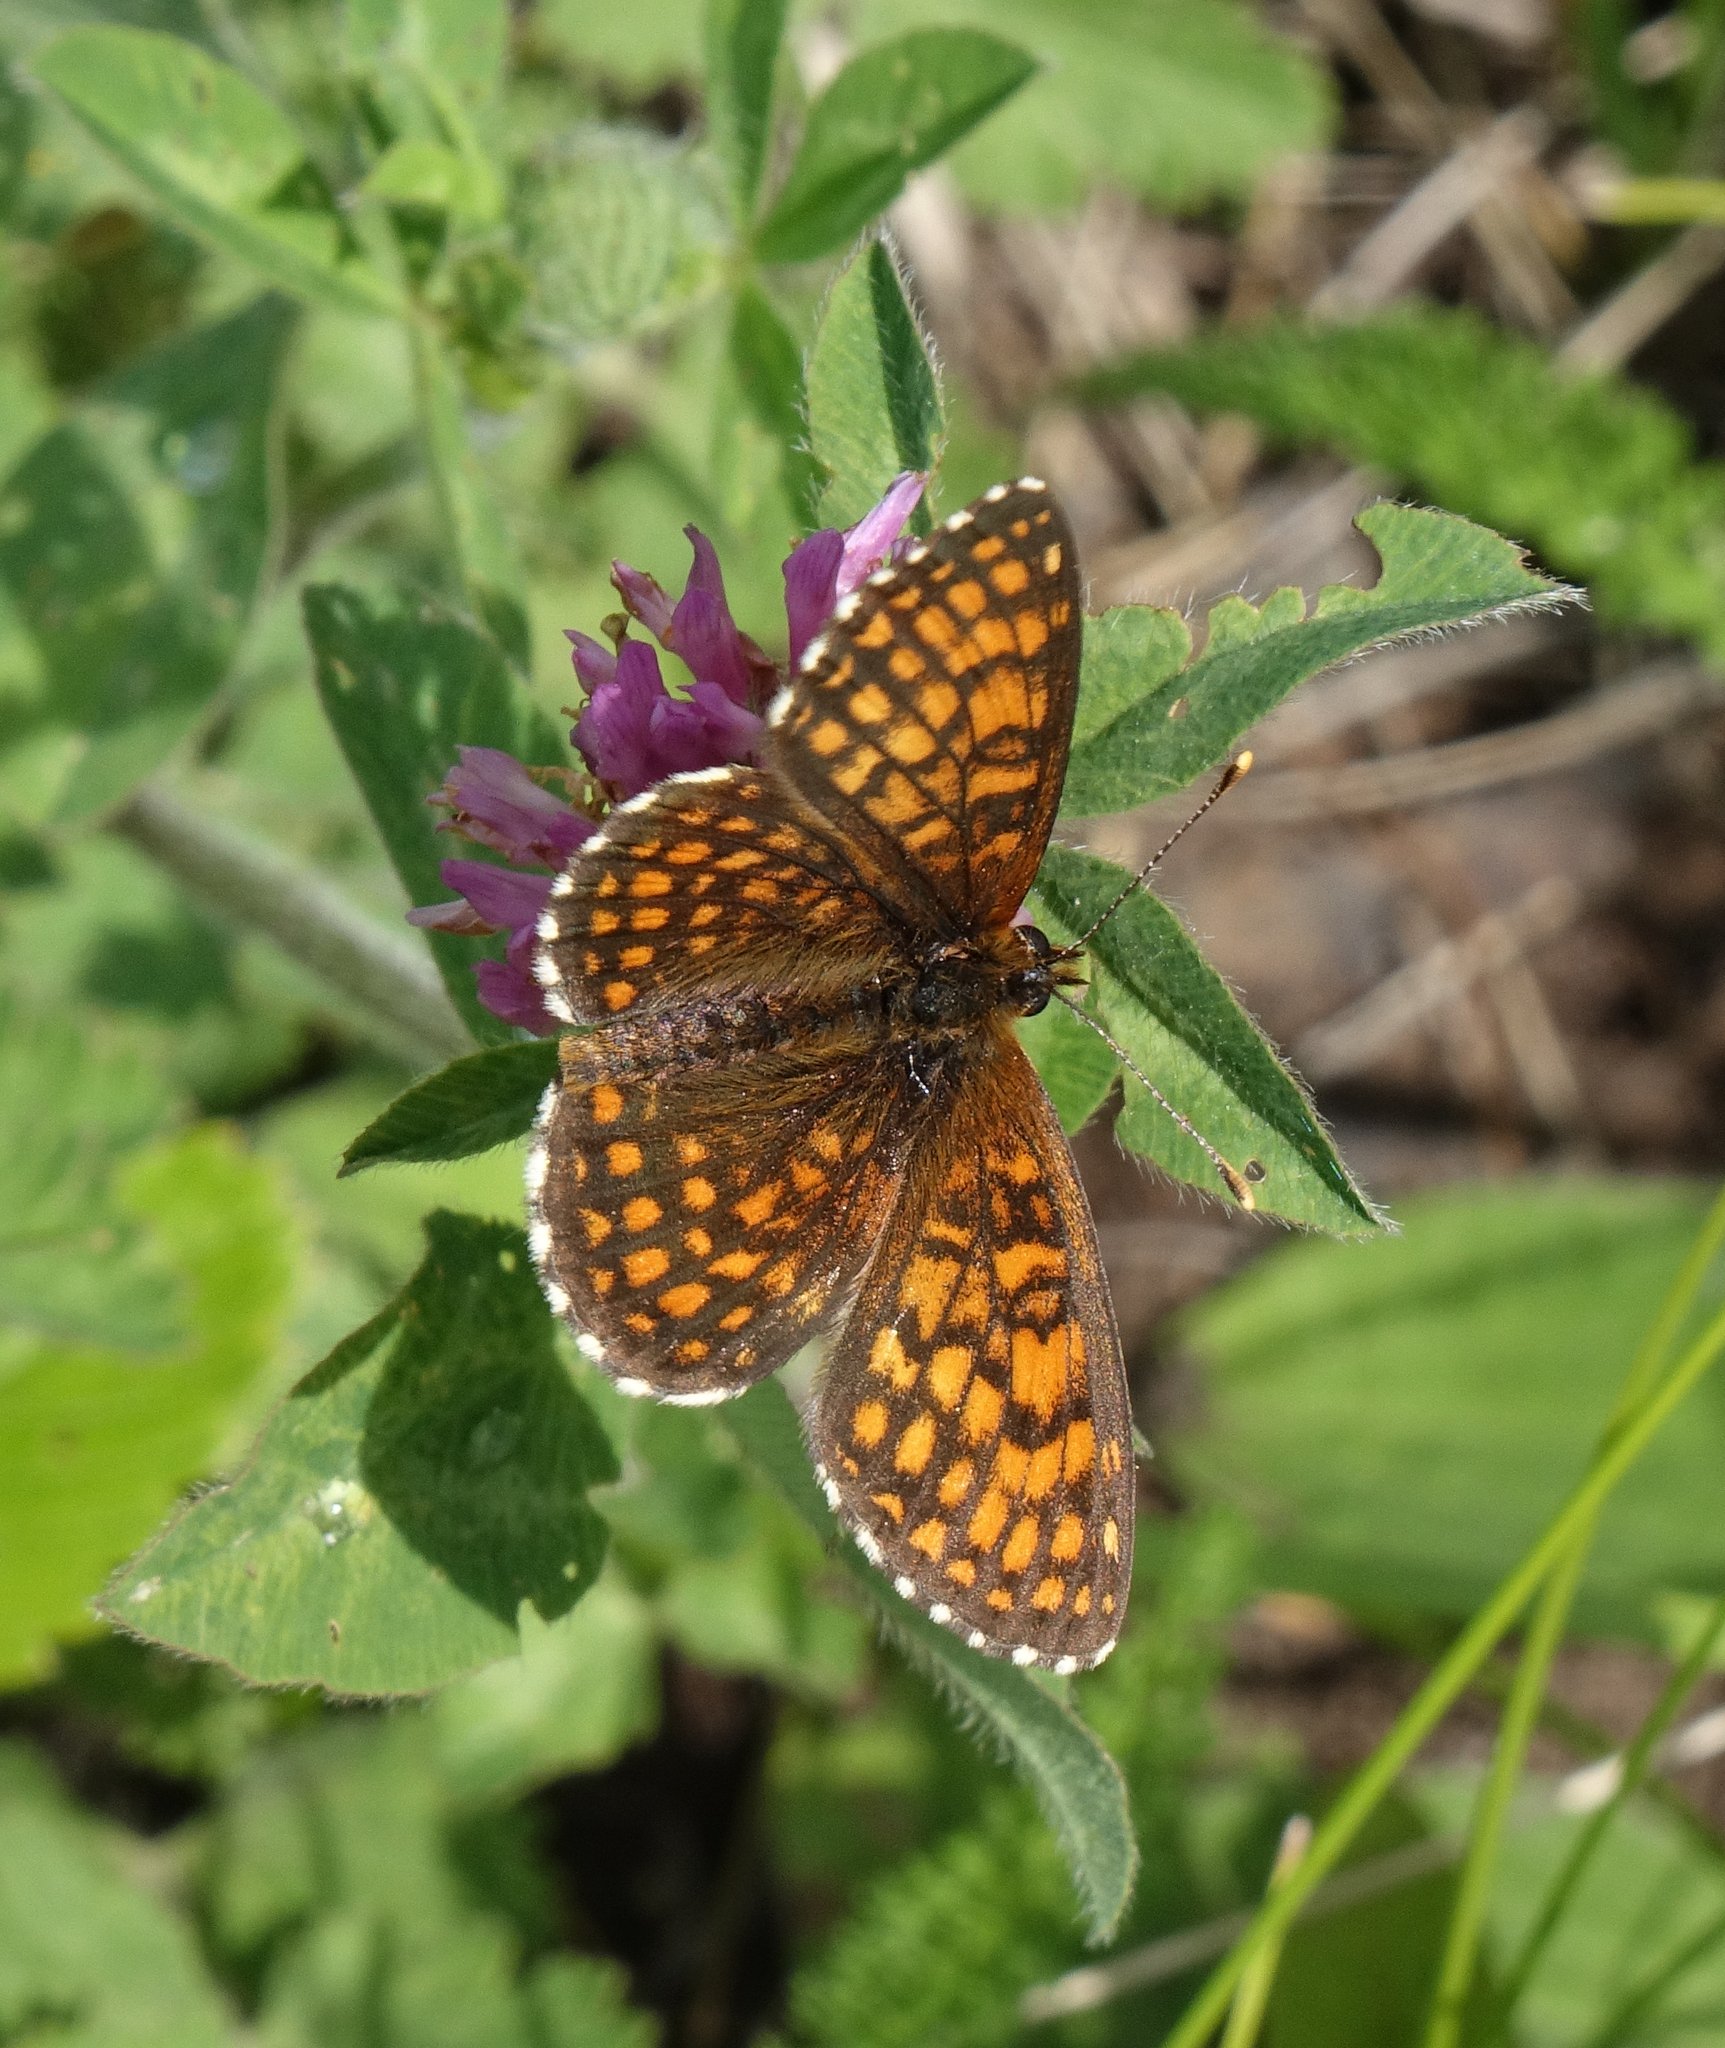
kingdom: Animalia
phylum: Arthropoda
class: Insecta
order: Lepidoptera
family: Nymphalidae
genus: Melitaea
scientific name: Melitaea
